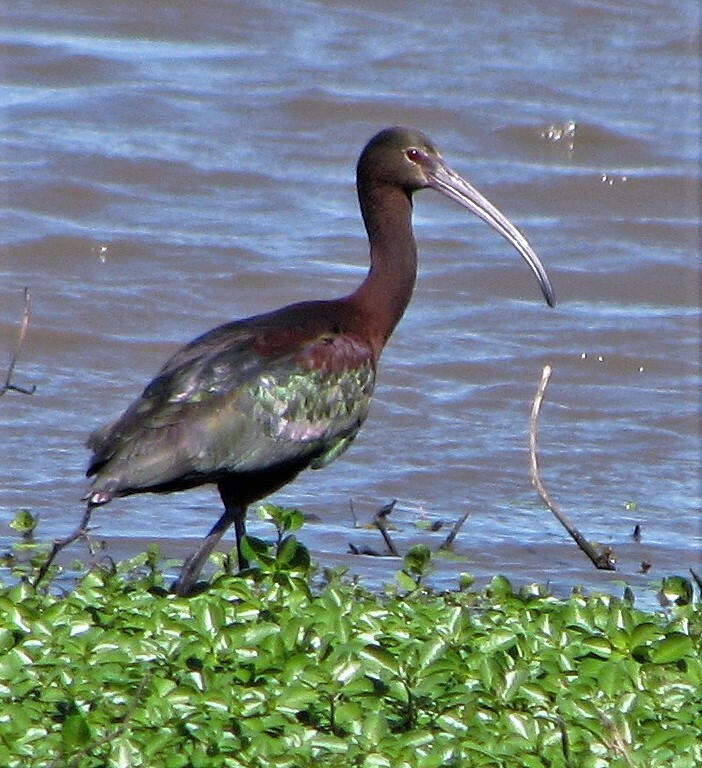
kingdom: Animalia
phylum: Chordata
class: Aves
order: Pelecaniformes
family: Threskiornithidae
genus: Plegadis
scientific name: Plegadis chihi
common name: White-faced ibis
